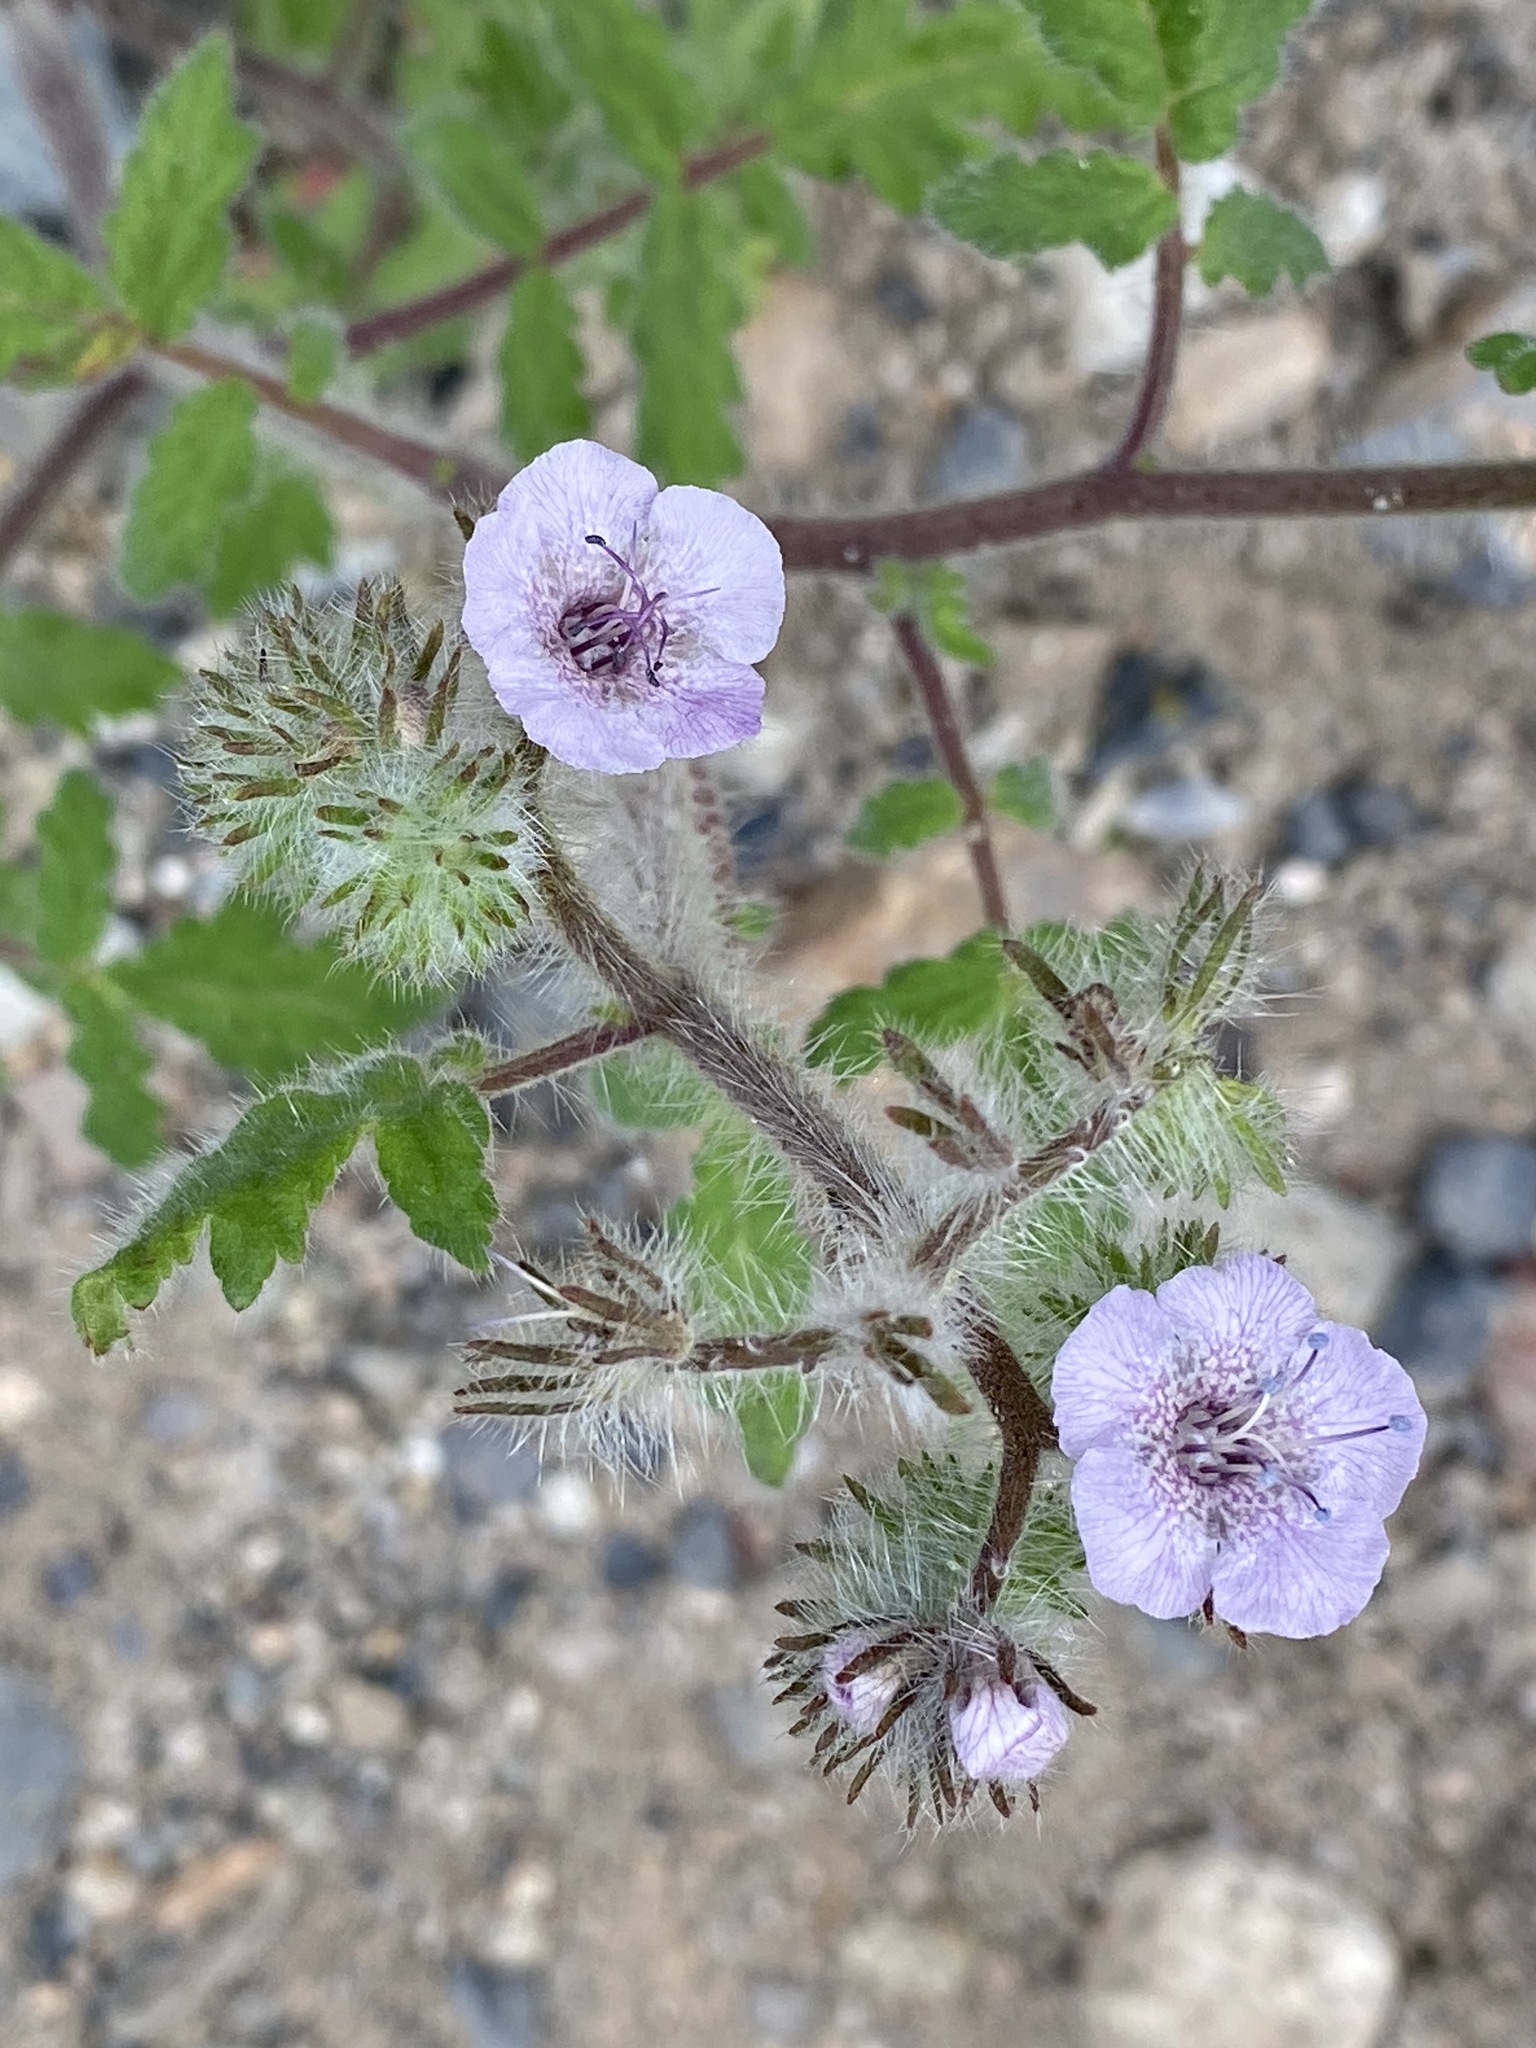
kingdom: Plantae
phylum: Tracheophyta
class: Magnoliopsida
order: Boraginales
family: Hydrophyllaceae
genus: Phacelia
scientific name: Phacelia cicutaria
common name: Caterpillar phacelia
